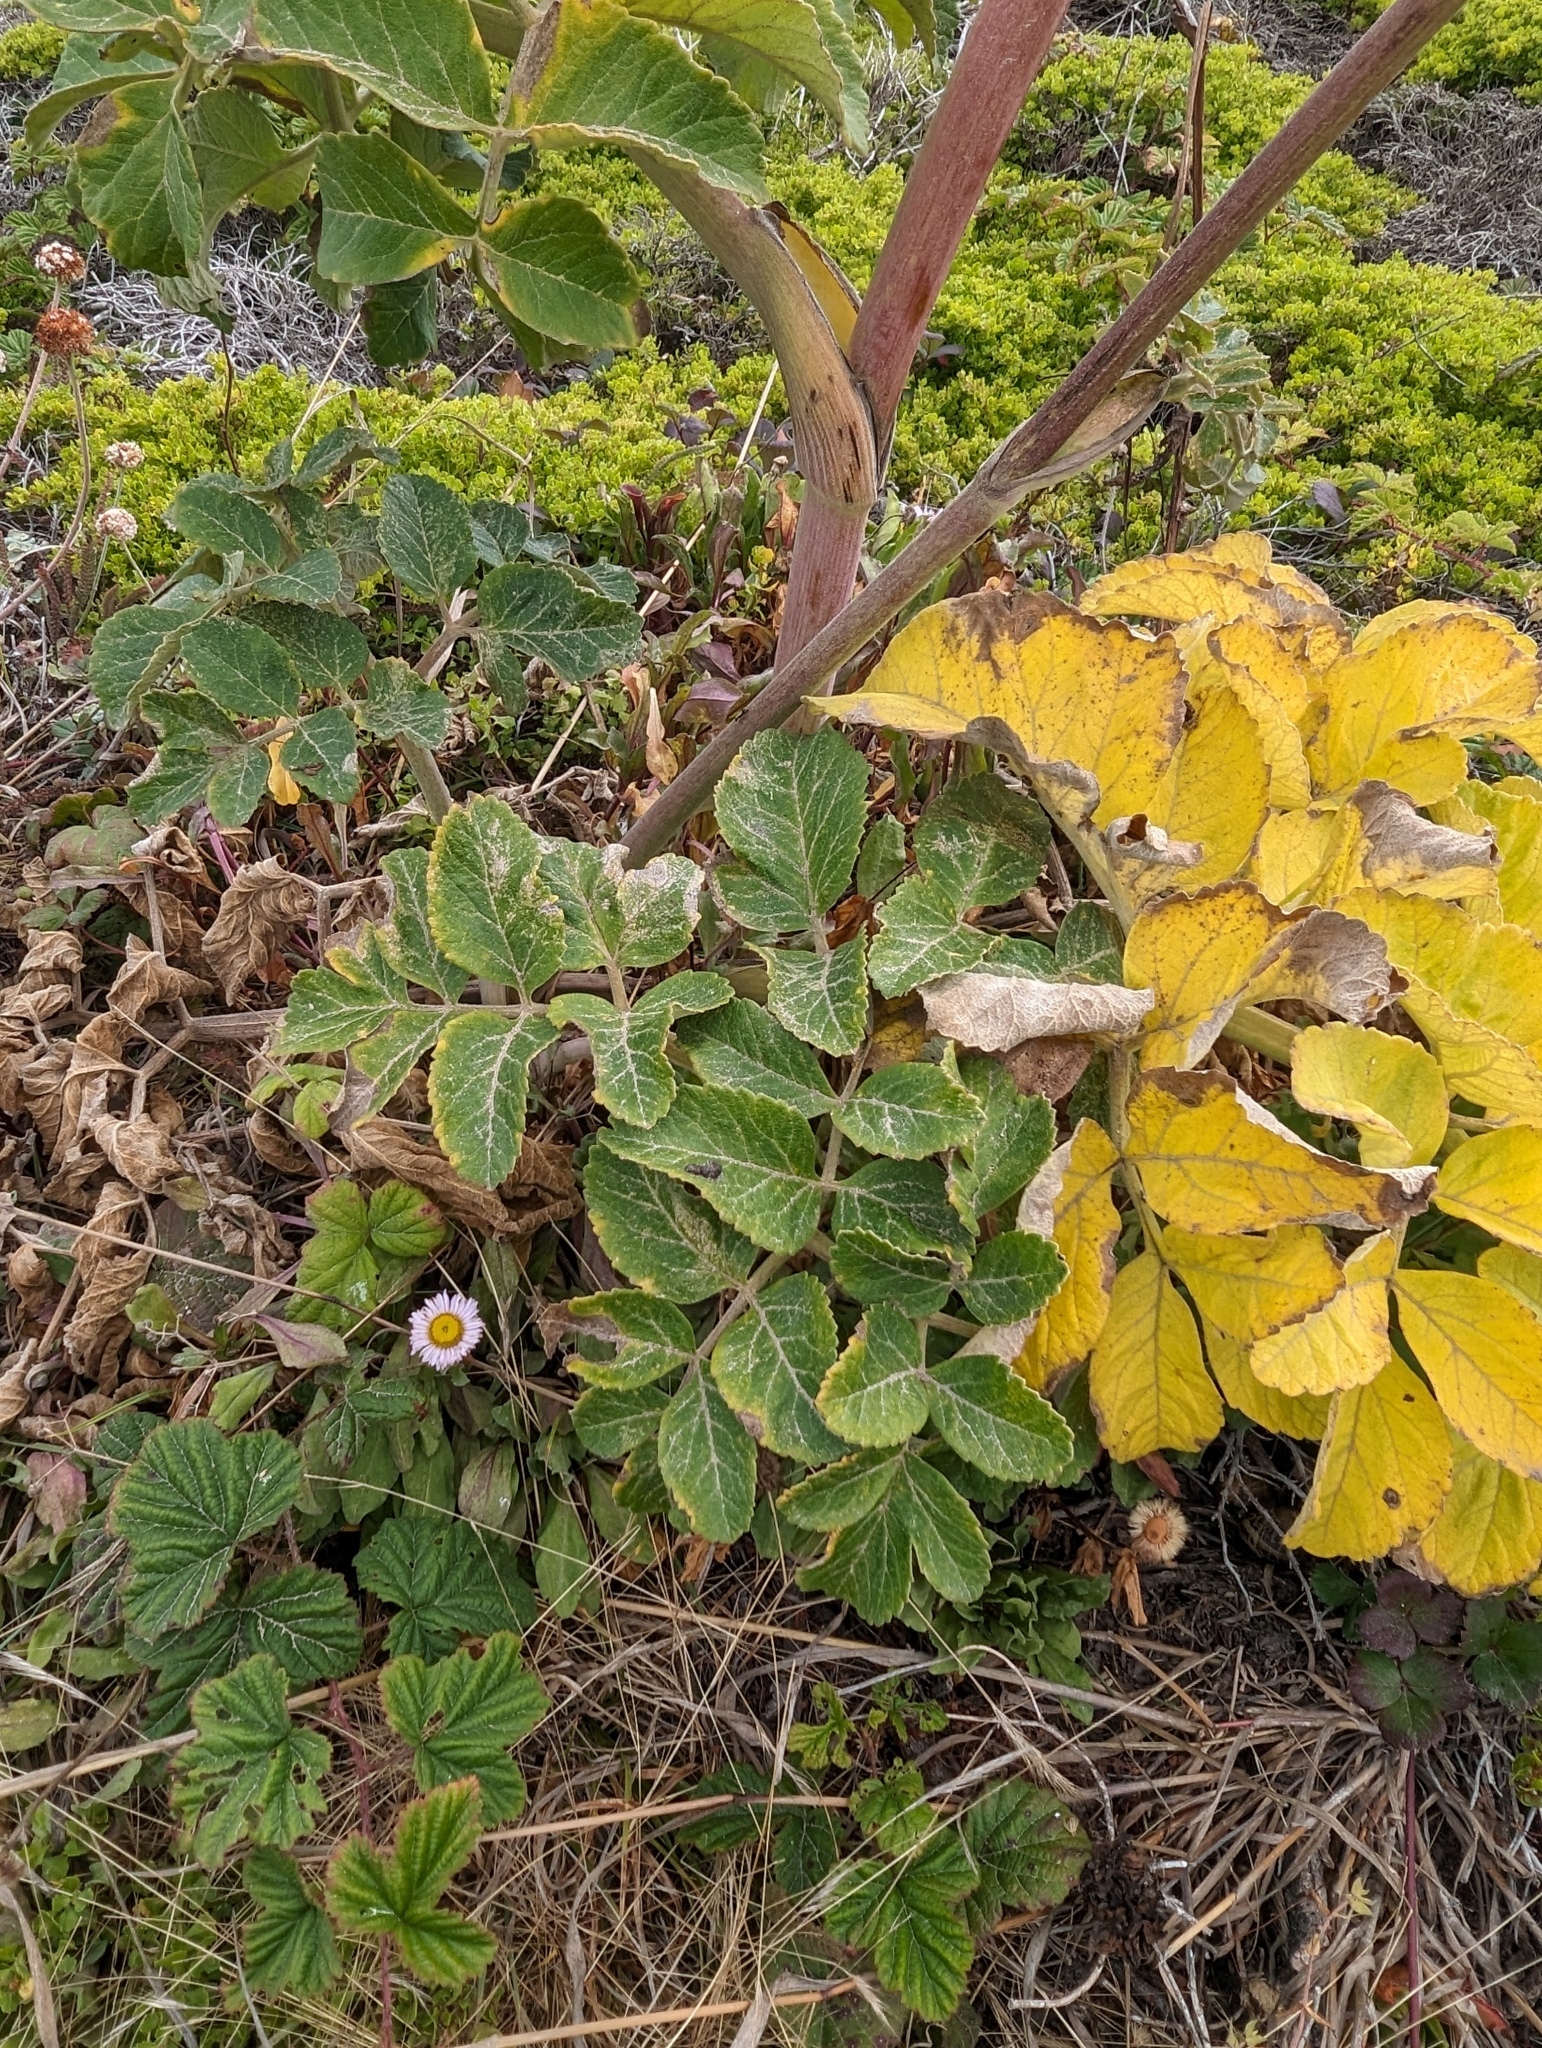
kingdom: Plantae
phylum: Tracheophyta
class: Magnoliopsida
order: Apiales
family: Apiaceae
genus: Angelica
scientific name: Angelica hendersonii
